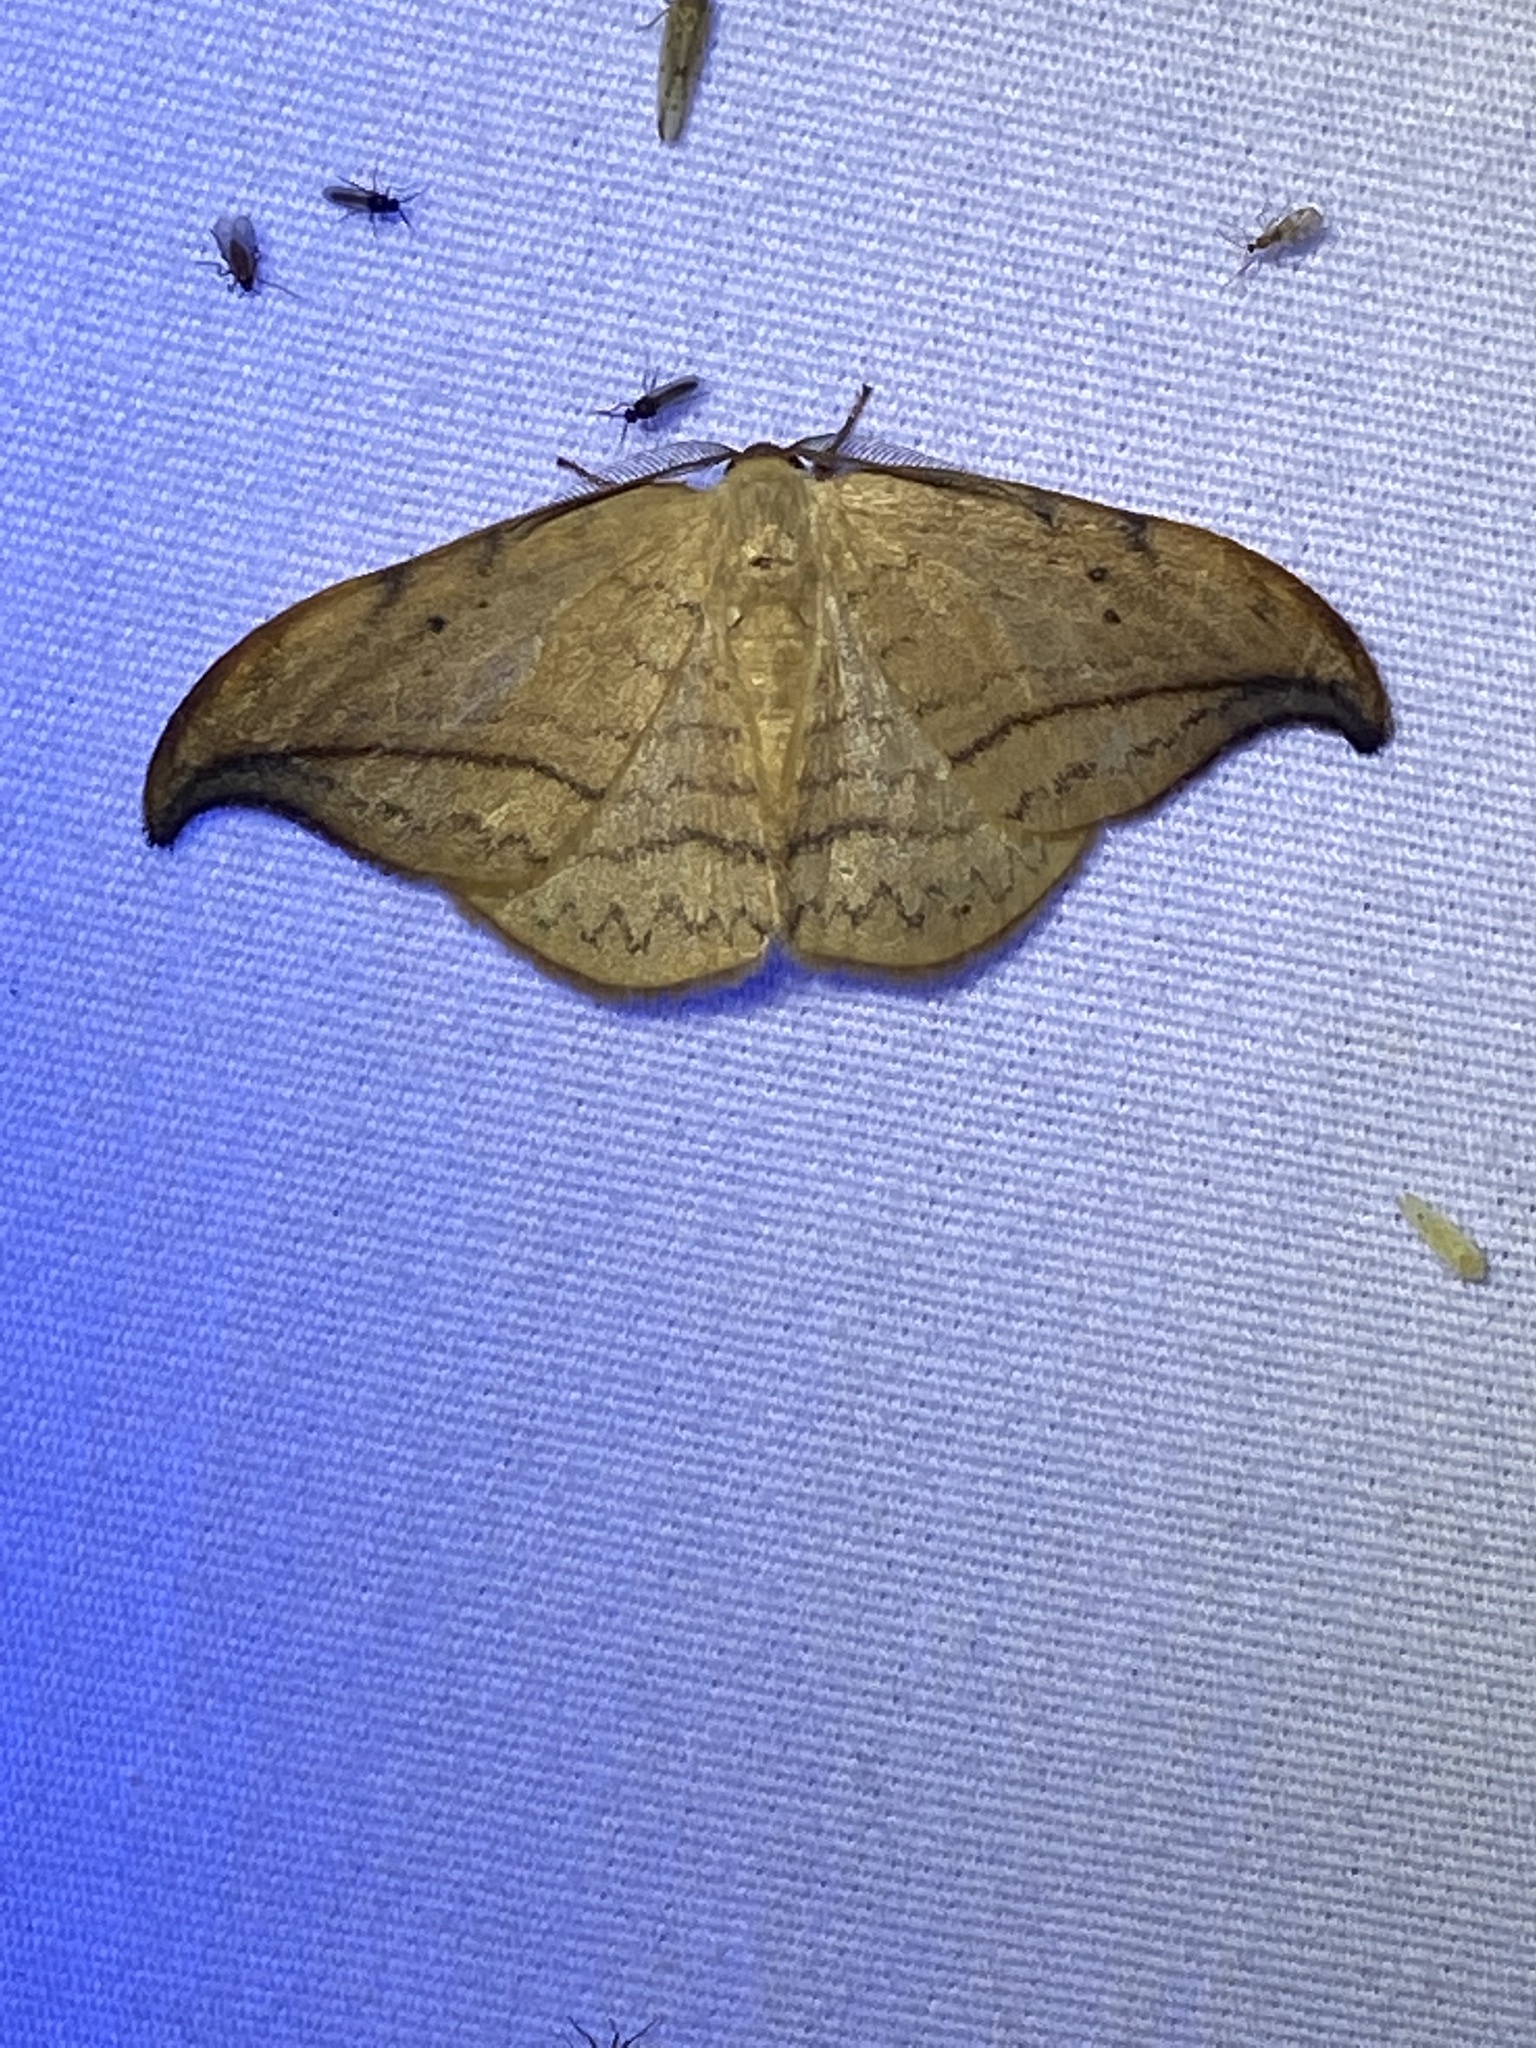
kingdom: Animalia
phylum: Arthropoda
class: Insecta
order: Lepidoptera
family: Drepanidae
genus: Drepana
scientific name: Drepana arcuata
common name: Arched hooktip moth
